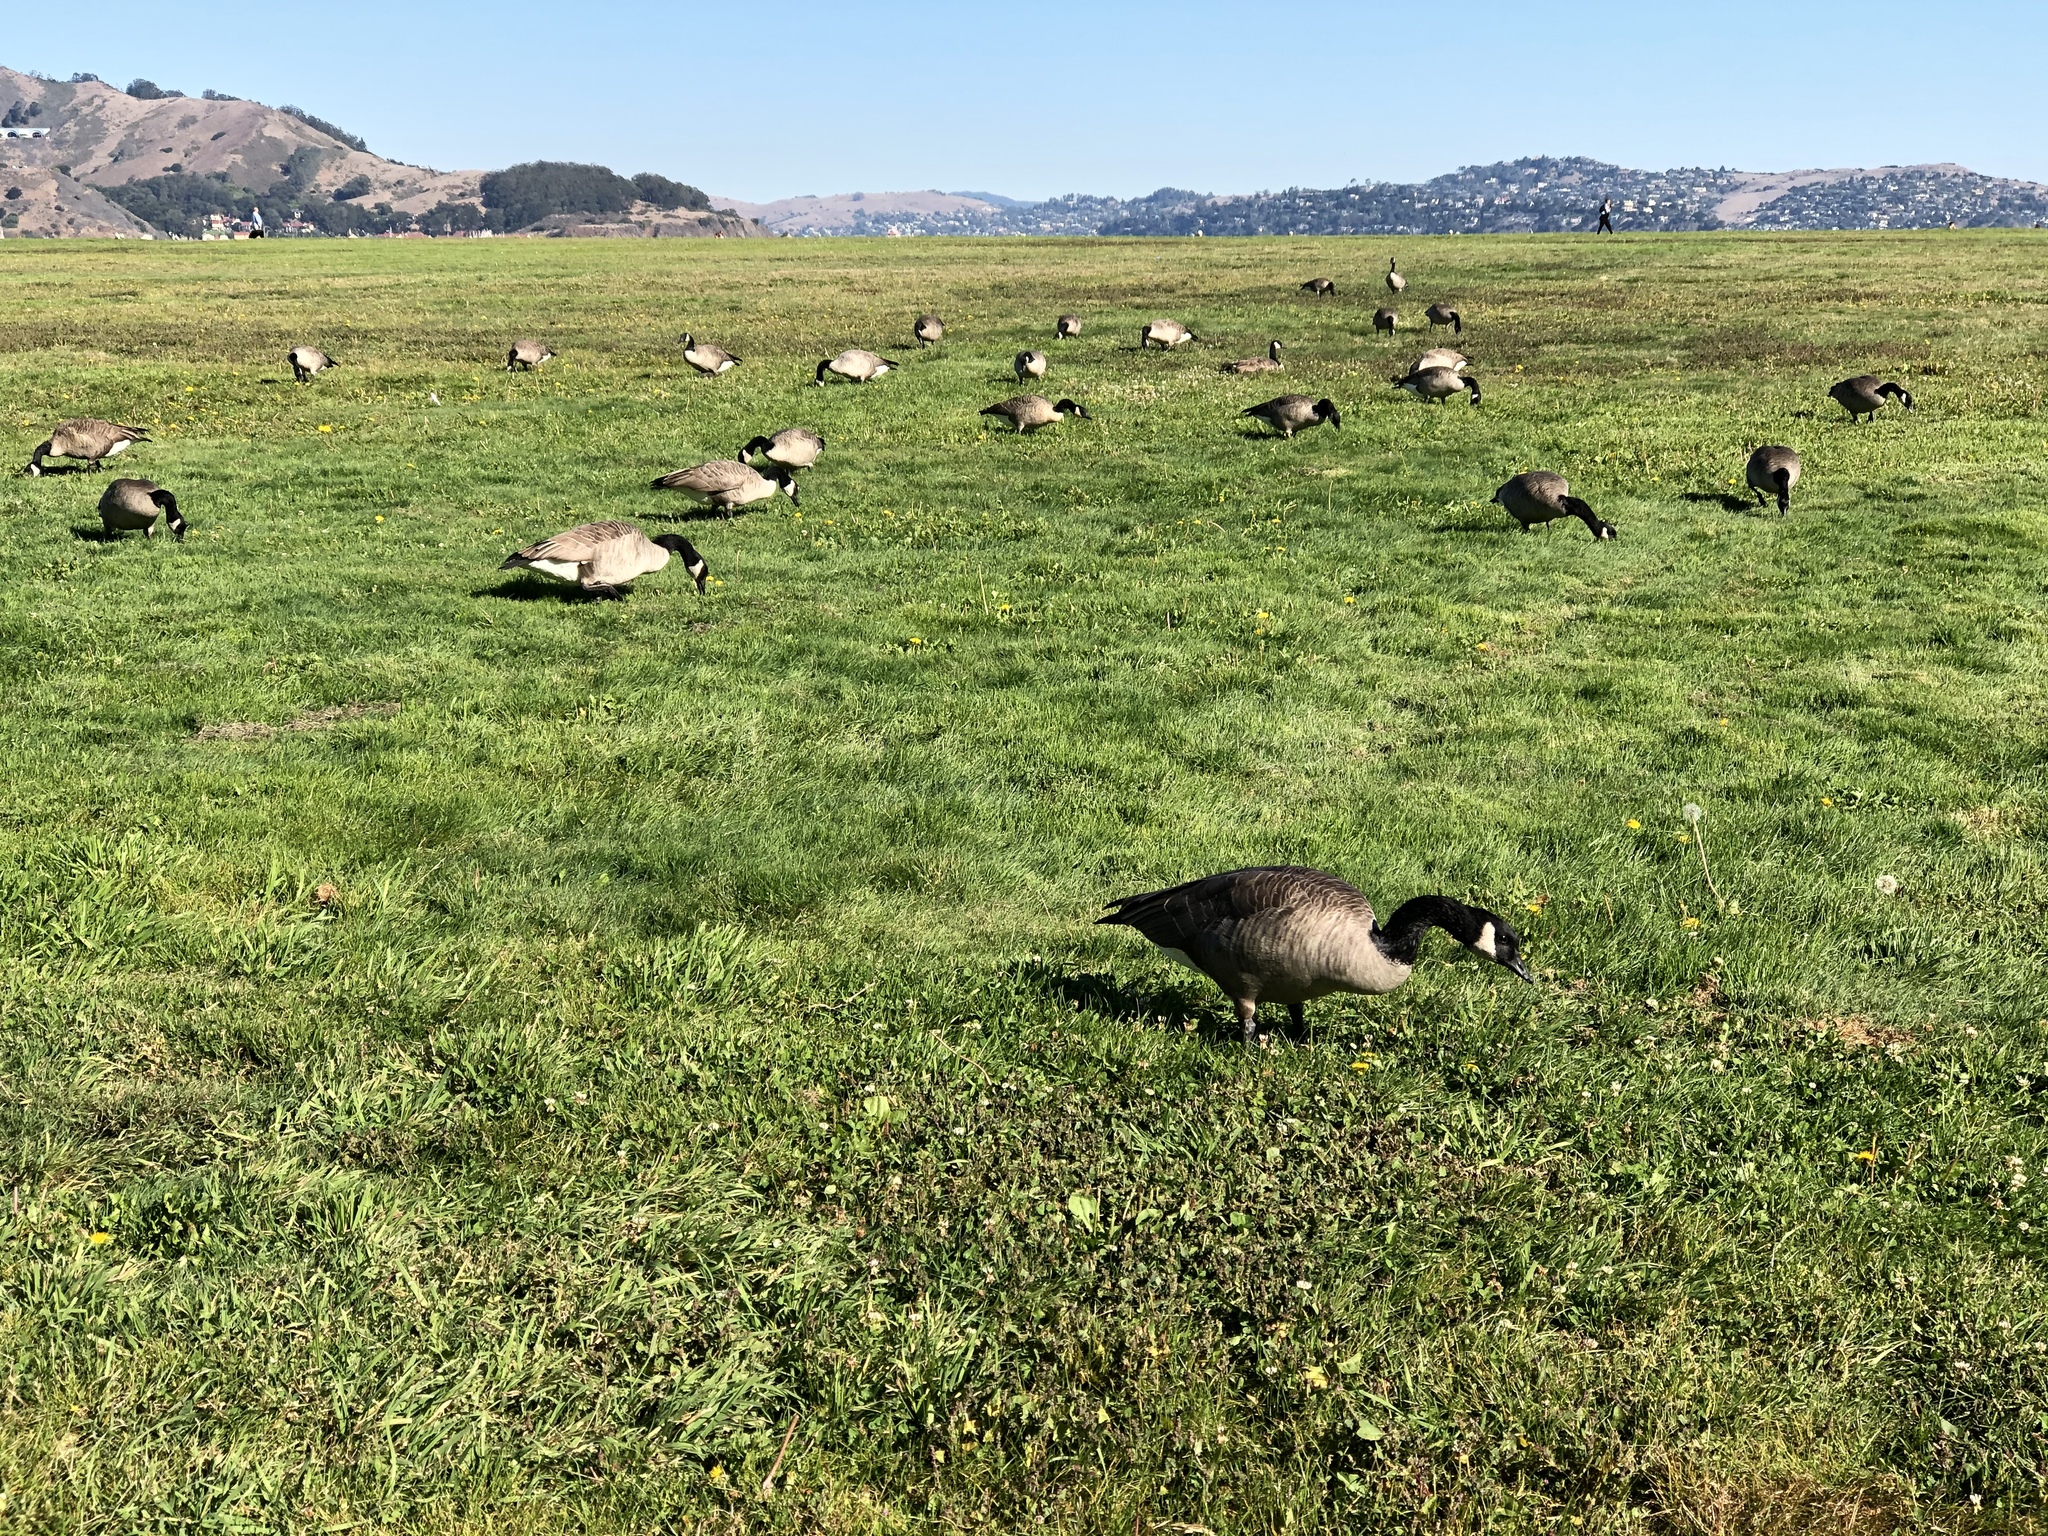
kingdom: Animalia
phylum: Chordata
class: Aves
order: Anseriformes
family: Anatidae
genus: Branta
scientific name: Branta canadensis
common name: Canada goose
